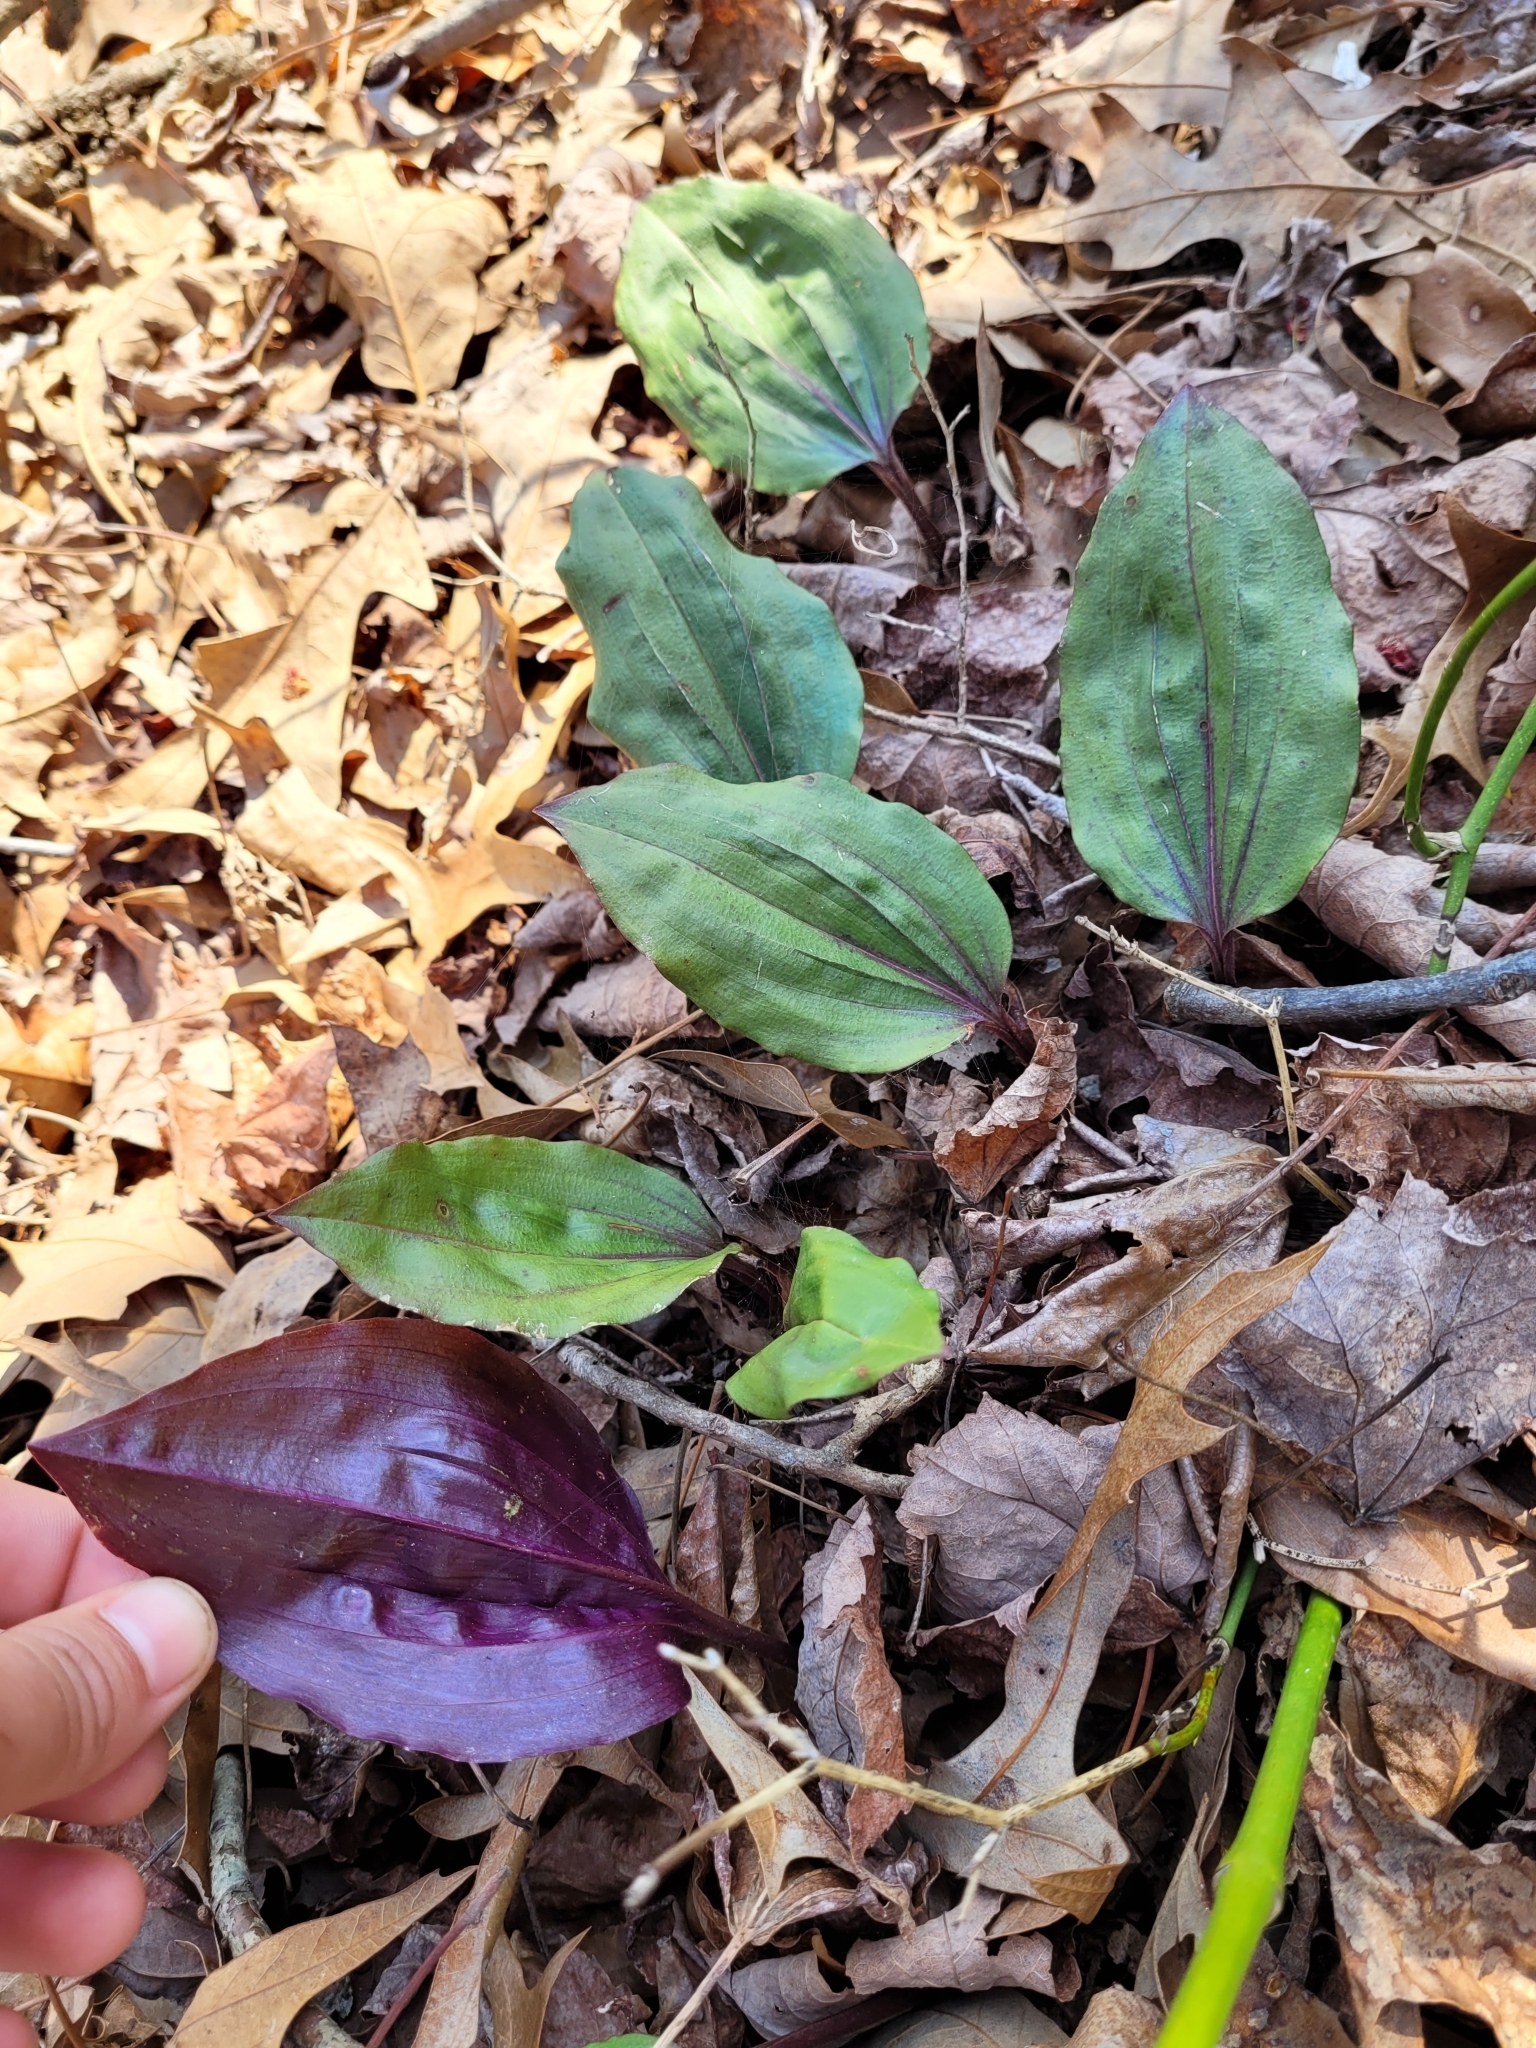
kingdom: Plantae
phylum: Tracheophyta
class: Liliopsida
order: Asparagales
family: Orchidaceae
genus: Tipularia
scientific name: Tipularia discolor
